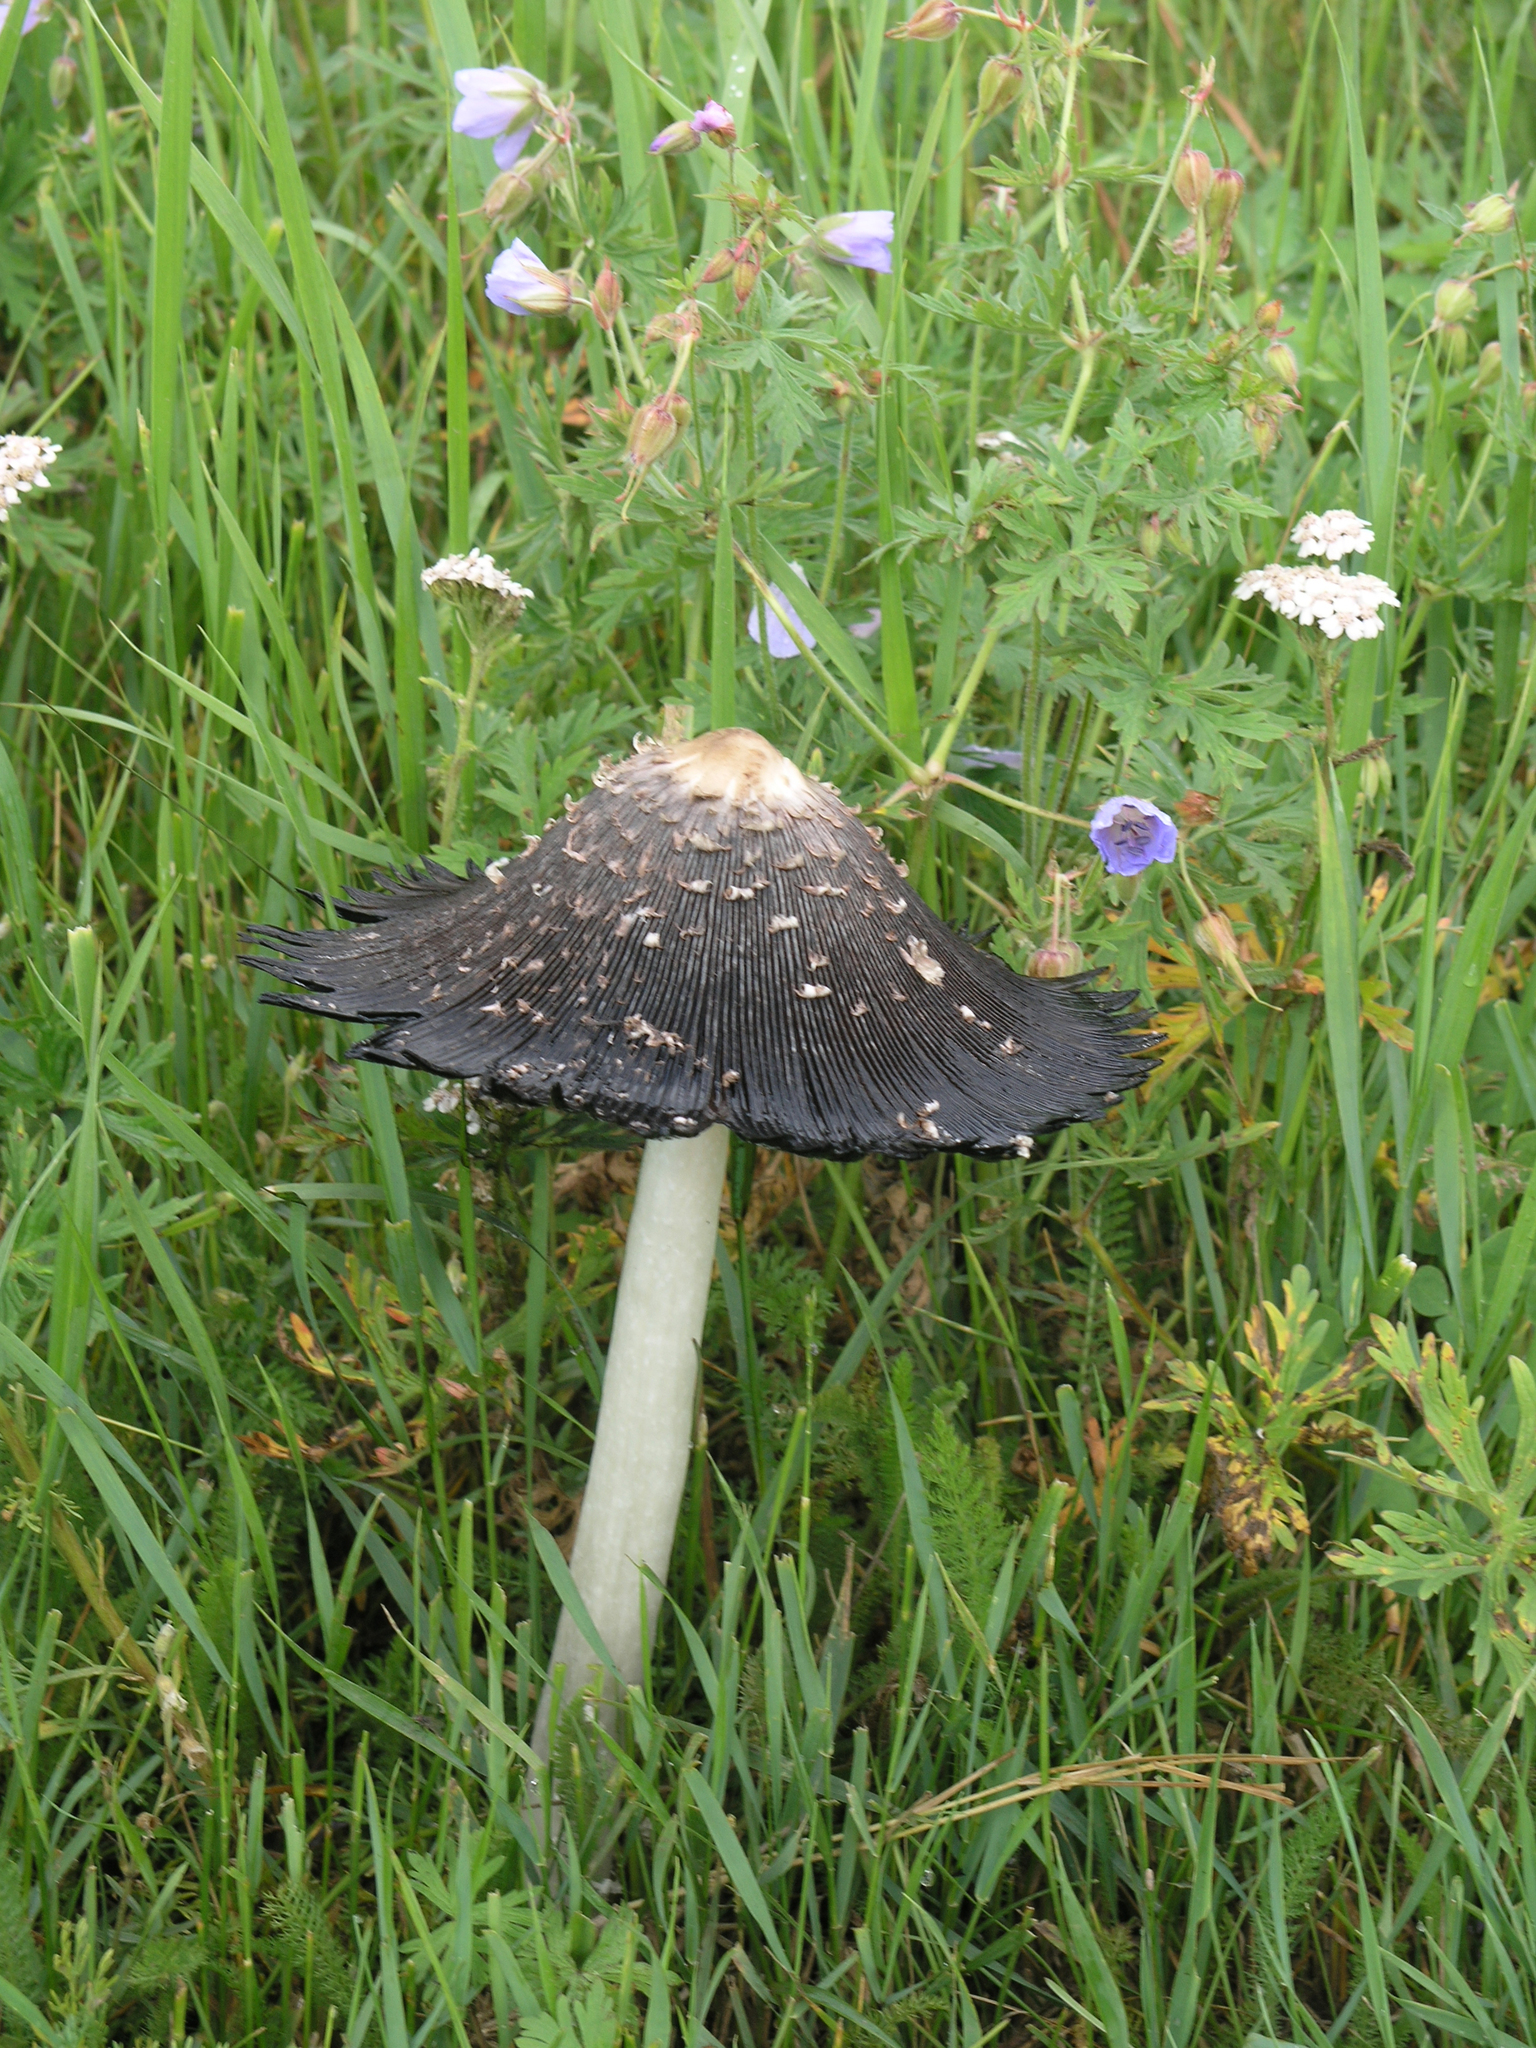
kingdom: Fungi
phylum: Basidiomycota
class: Agaricomycetes
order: Agaricales
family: Agaricaceae
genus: Coprinus
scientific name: Coprinus comatus
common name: Lawyer's wig
